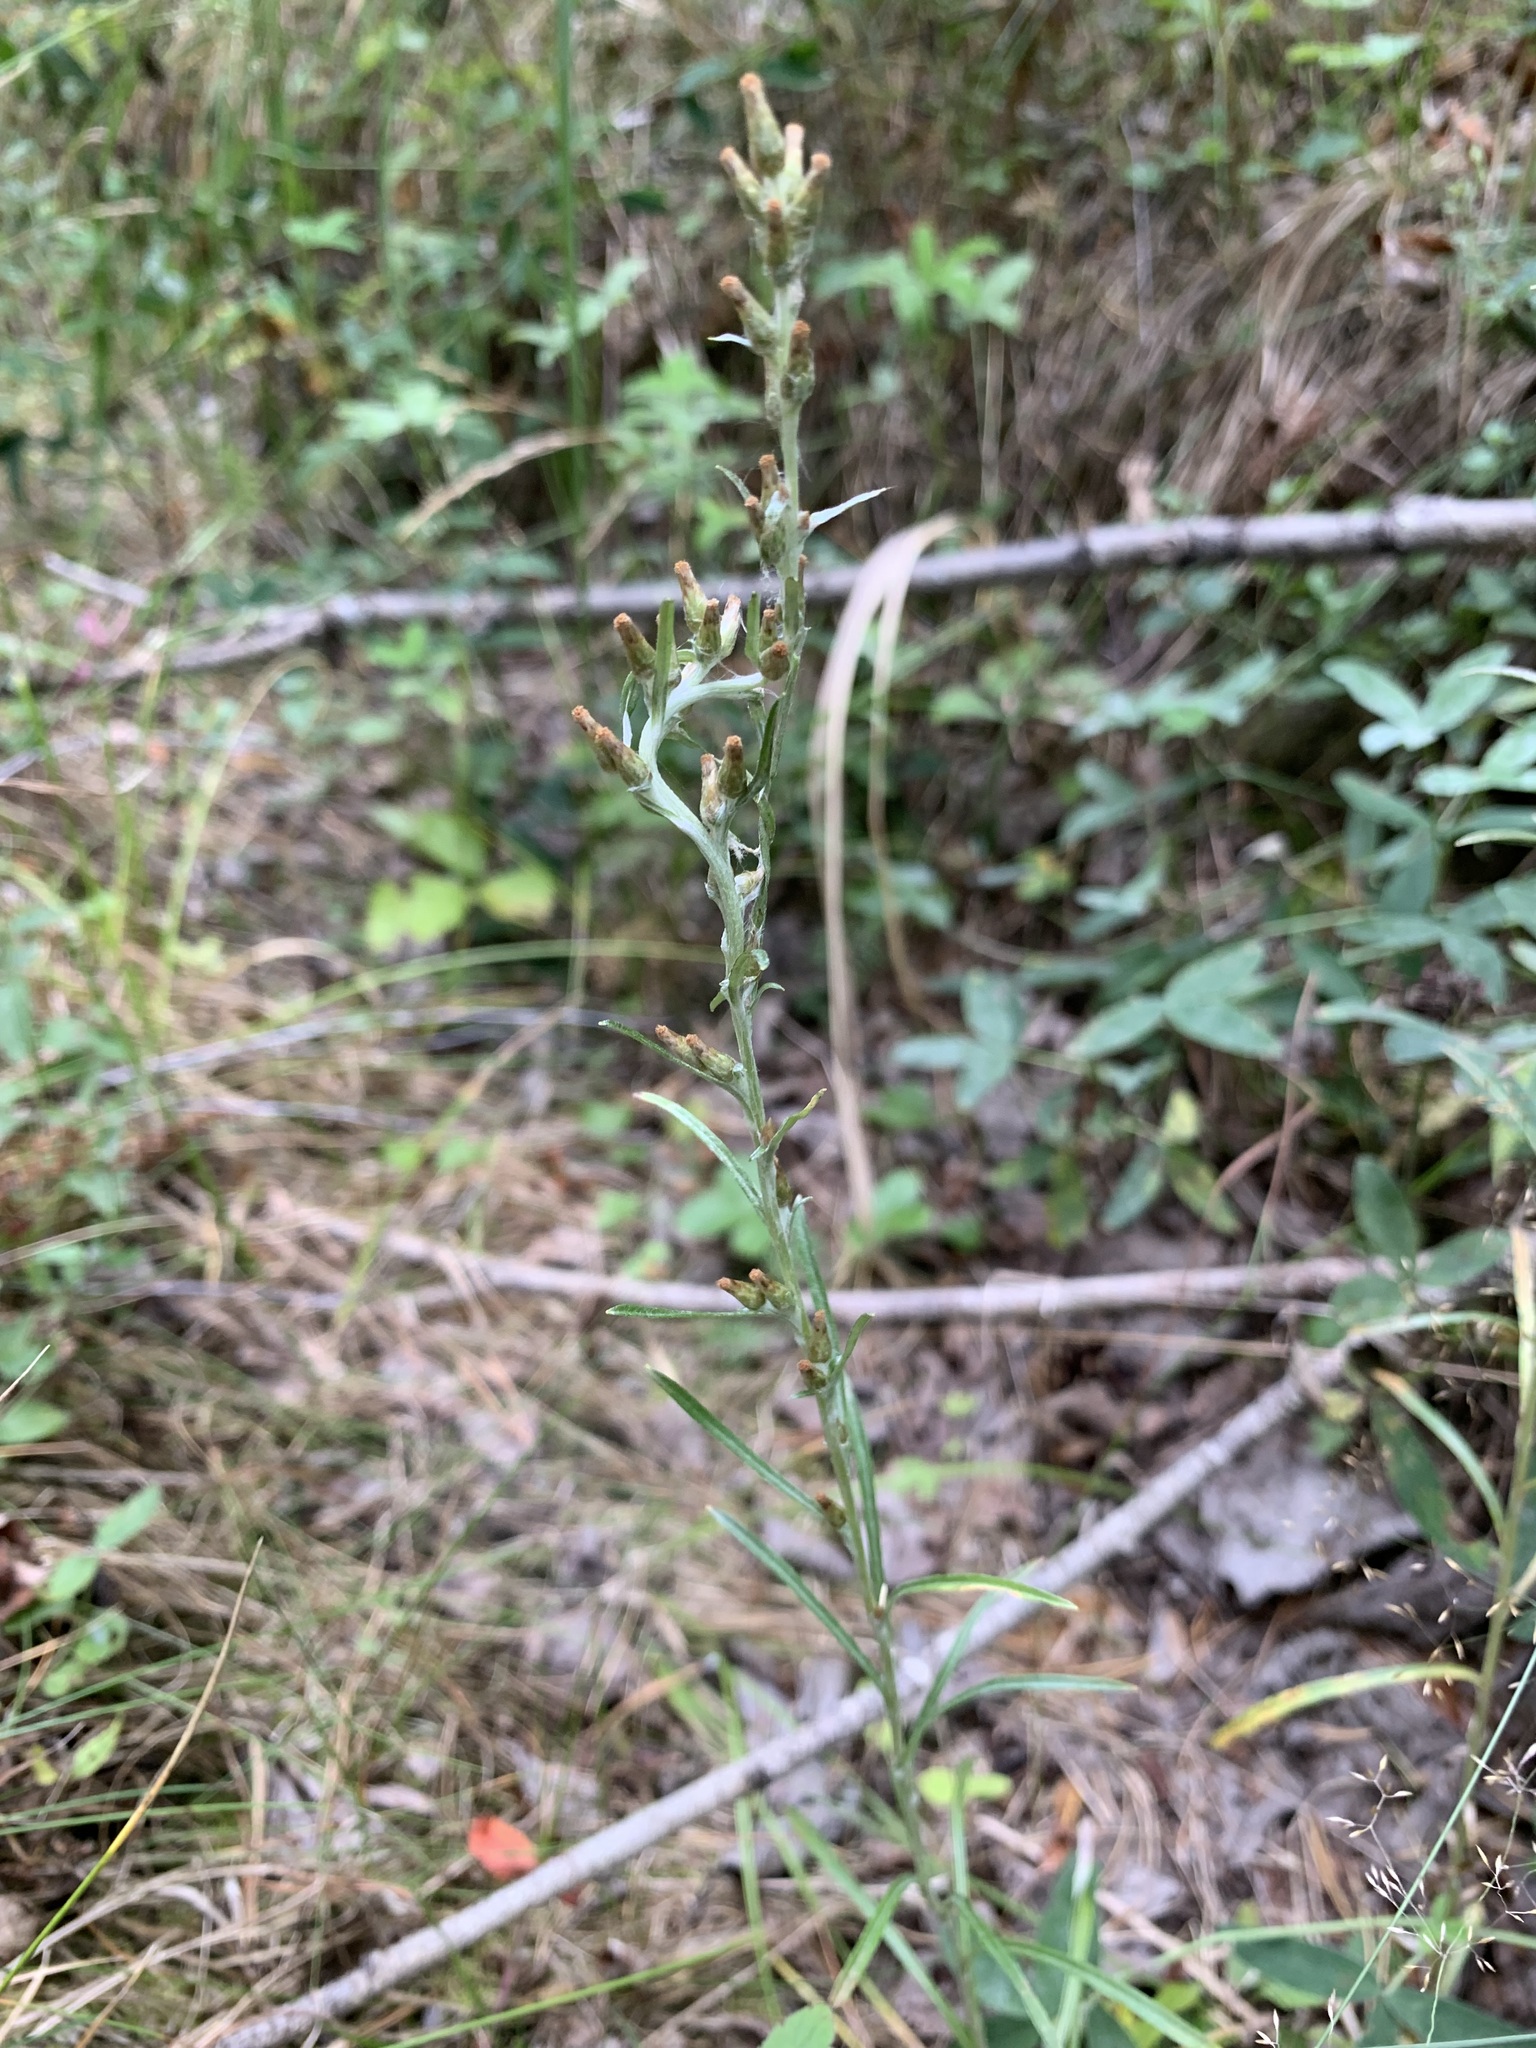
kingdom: Plantae
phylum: Tracheophyta
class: Magnoliopsida
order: Asterales
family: Asteraceae
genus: Omalotheca
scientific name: Omalotheca sylvatica
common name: Heath cudweed
